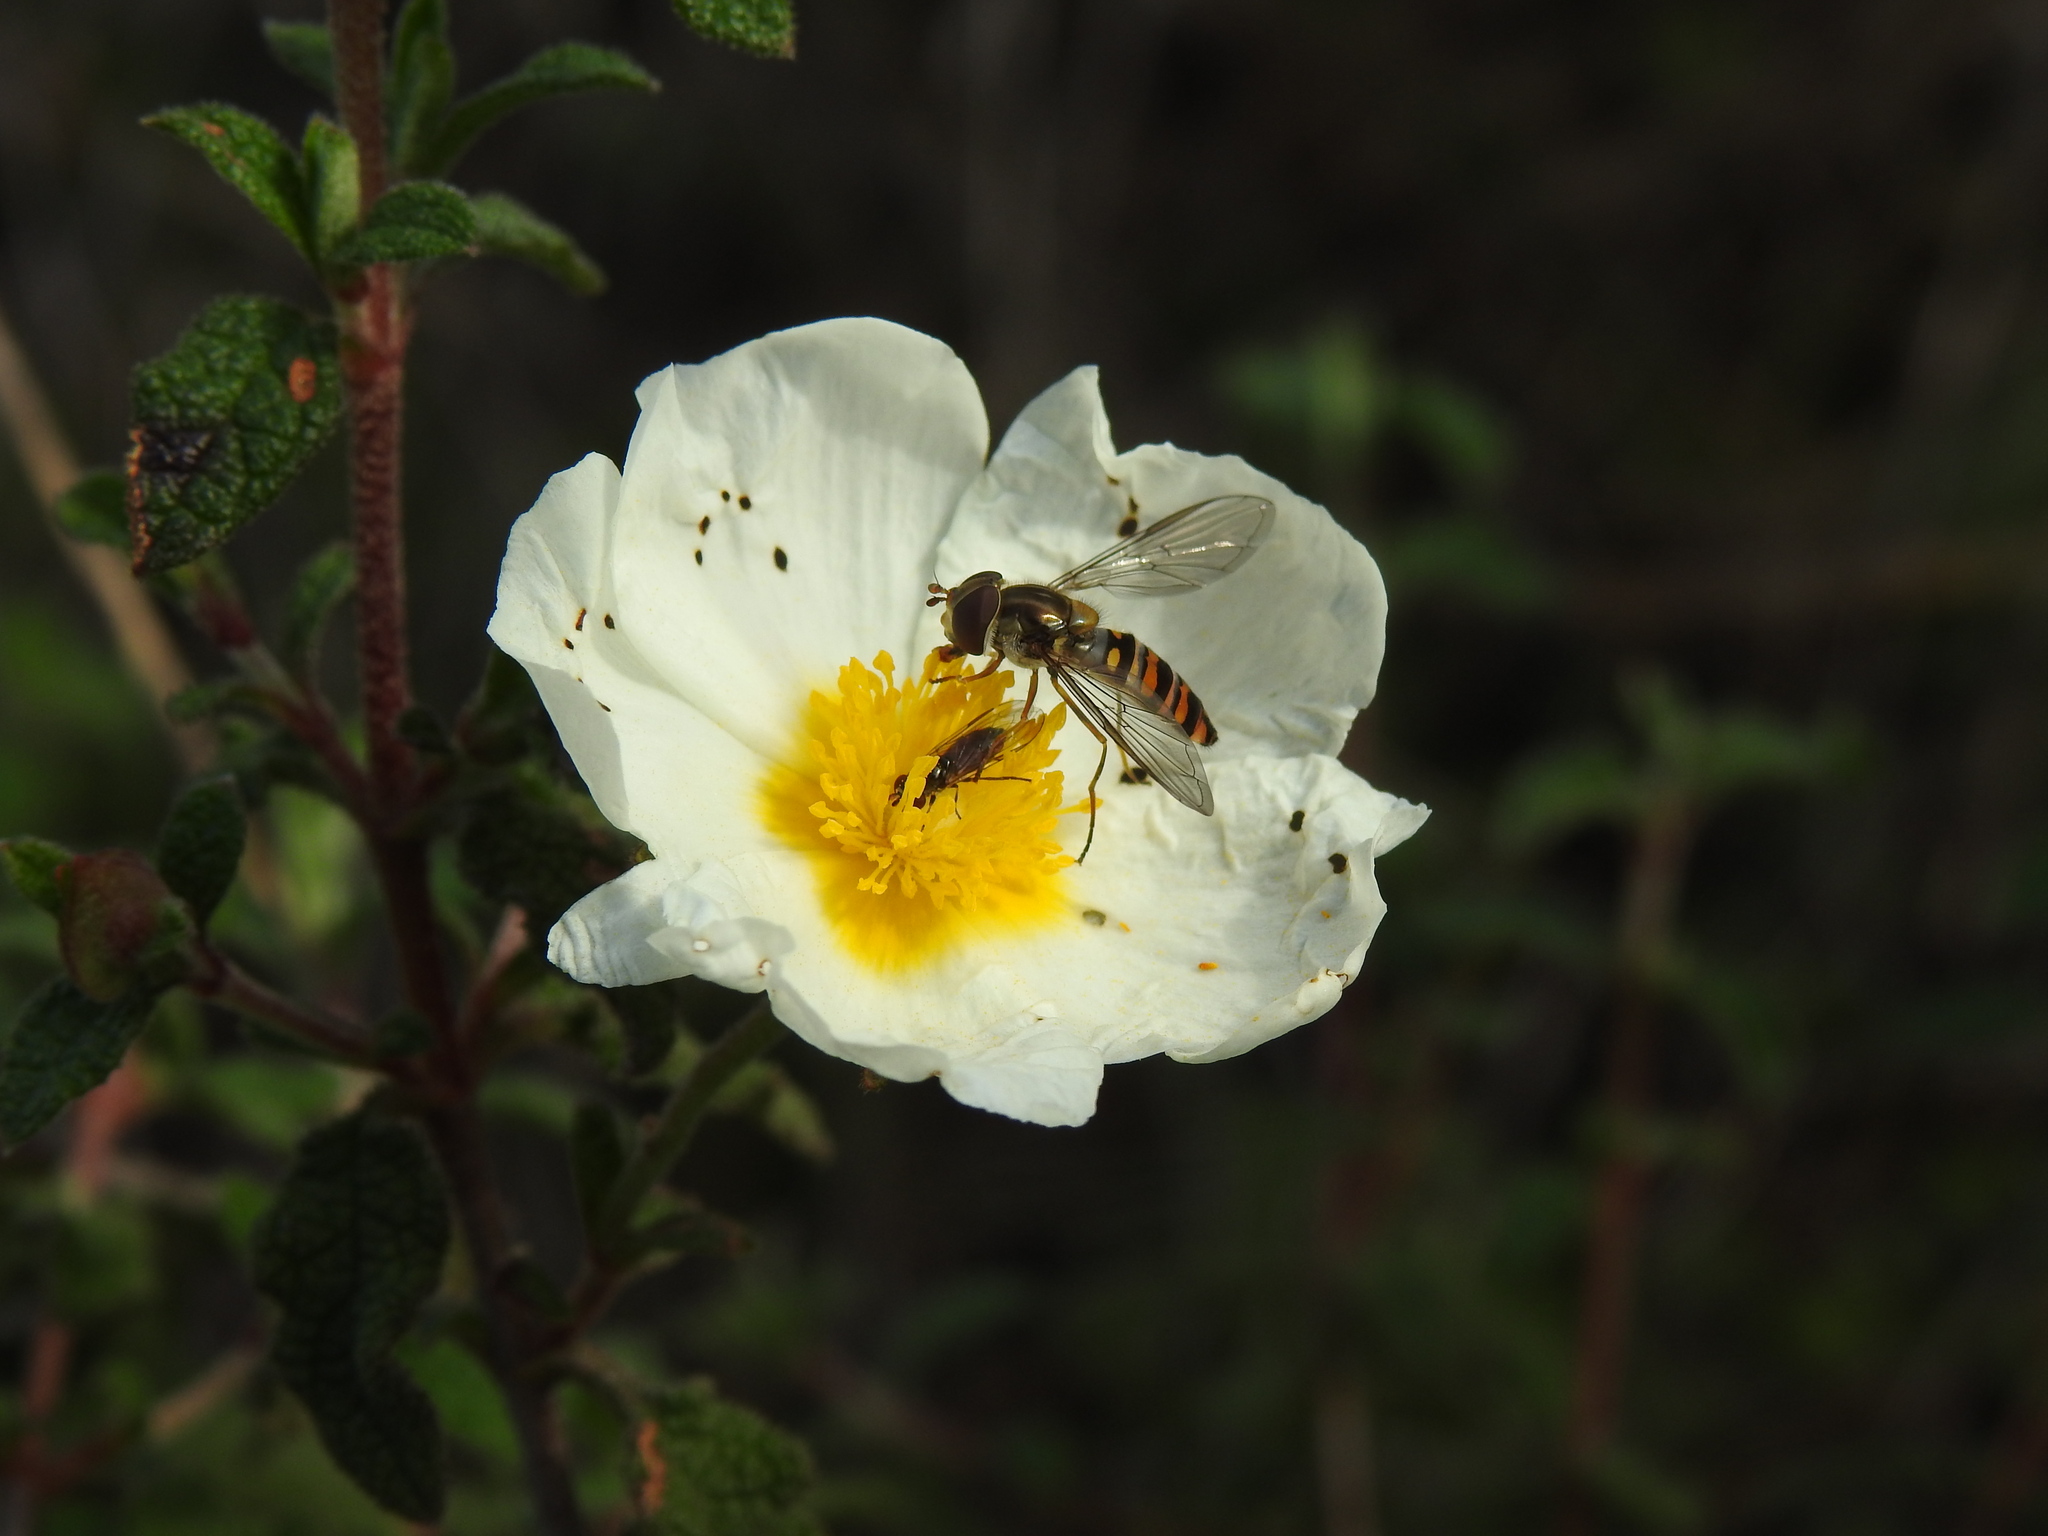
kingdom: Animalia
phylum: Arthropoda
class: Insecta
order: Diptera
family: Syrphidae
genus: Episyrphus
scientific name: Episyrphus balteatus
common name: Marmalade hoverfly
